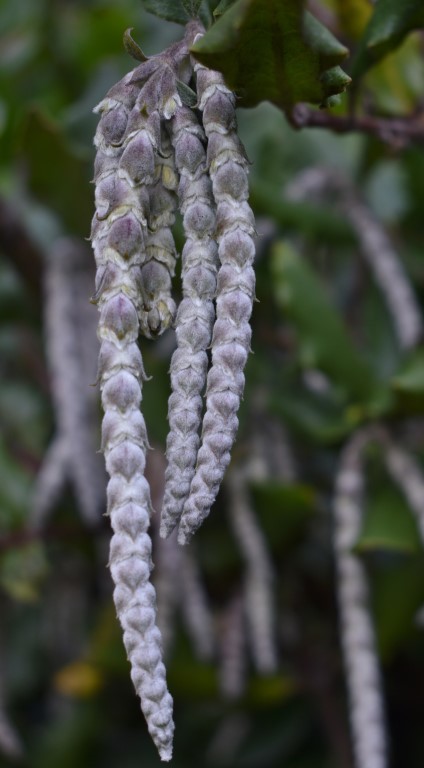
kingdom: Plantae
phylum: Tracheophyta
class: Magnoliopsida
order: Garryales
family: Garryaceae
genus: Garrya
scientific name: Garrya elliptica
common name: Silk-tassel
